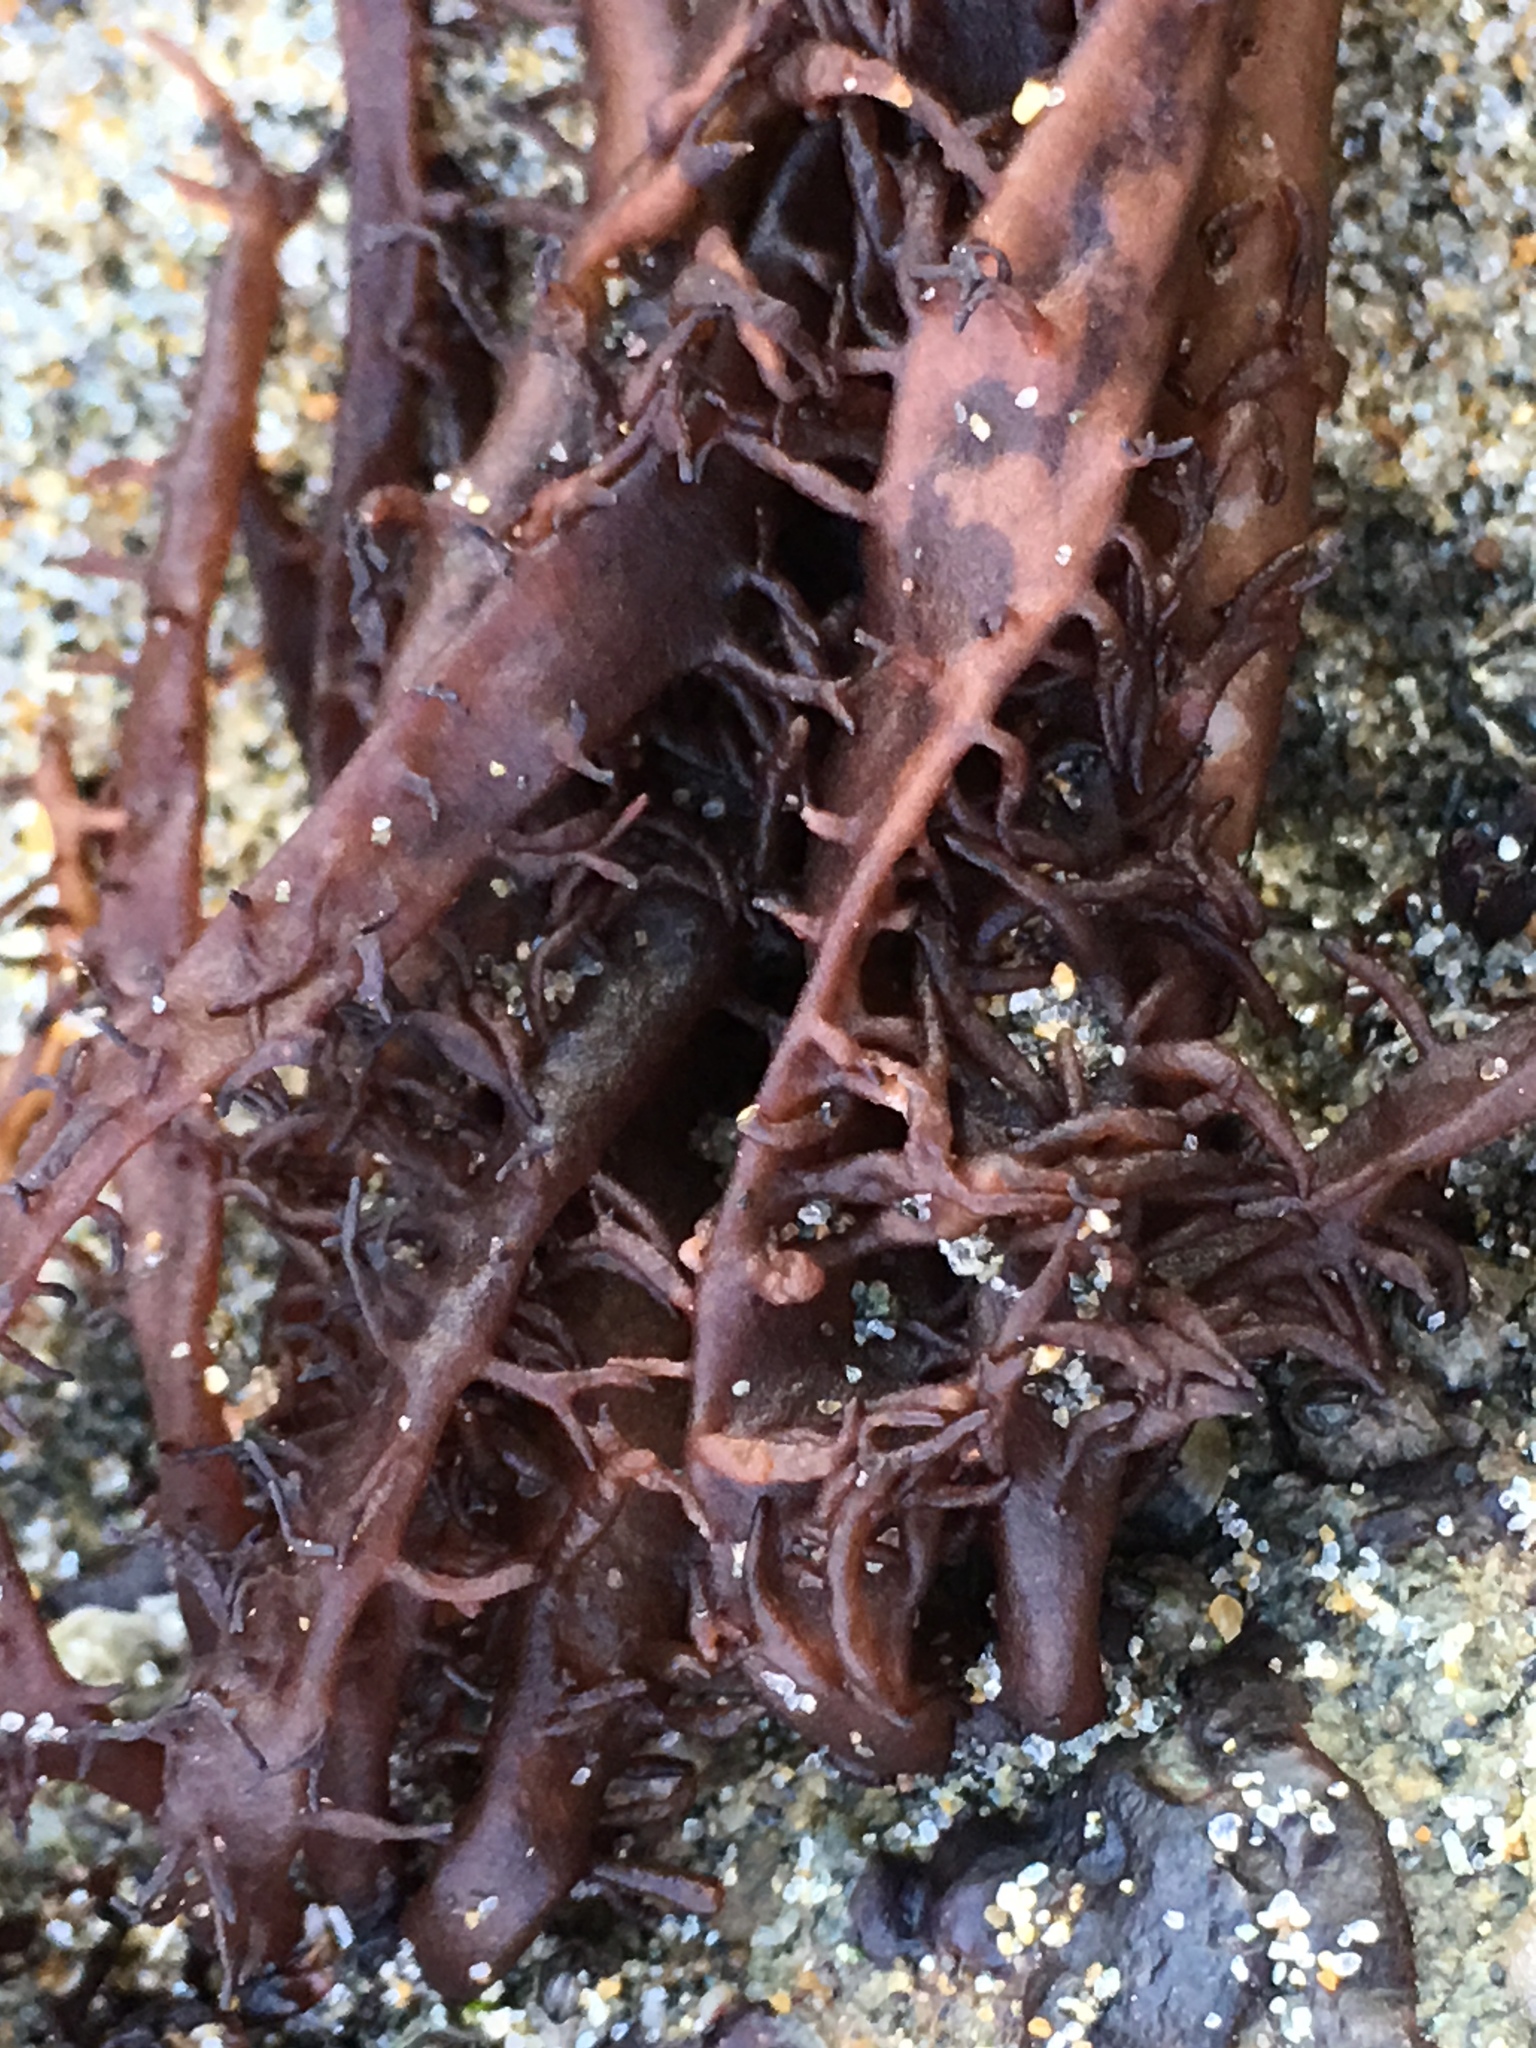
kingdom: Plantae
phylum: Rhodophyta
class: Florideophyceae
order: Nemaliales
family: Liagoraceae
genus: Cumagloia
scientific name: Cumagloia andersonii
